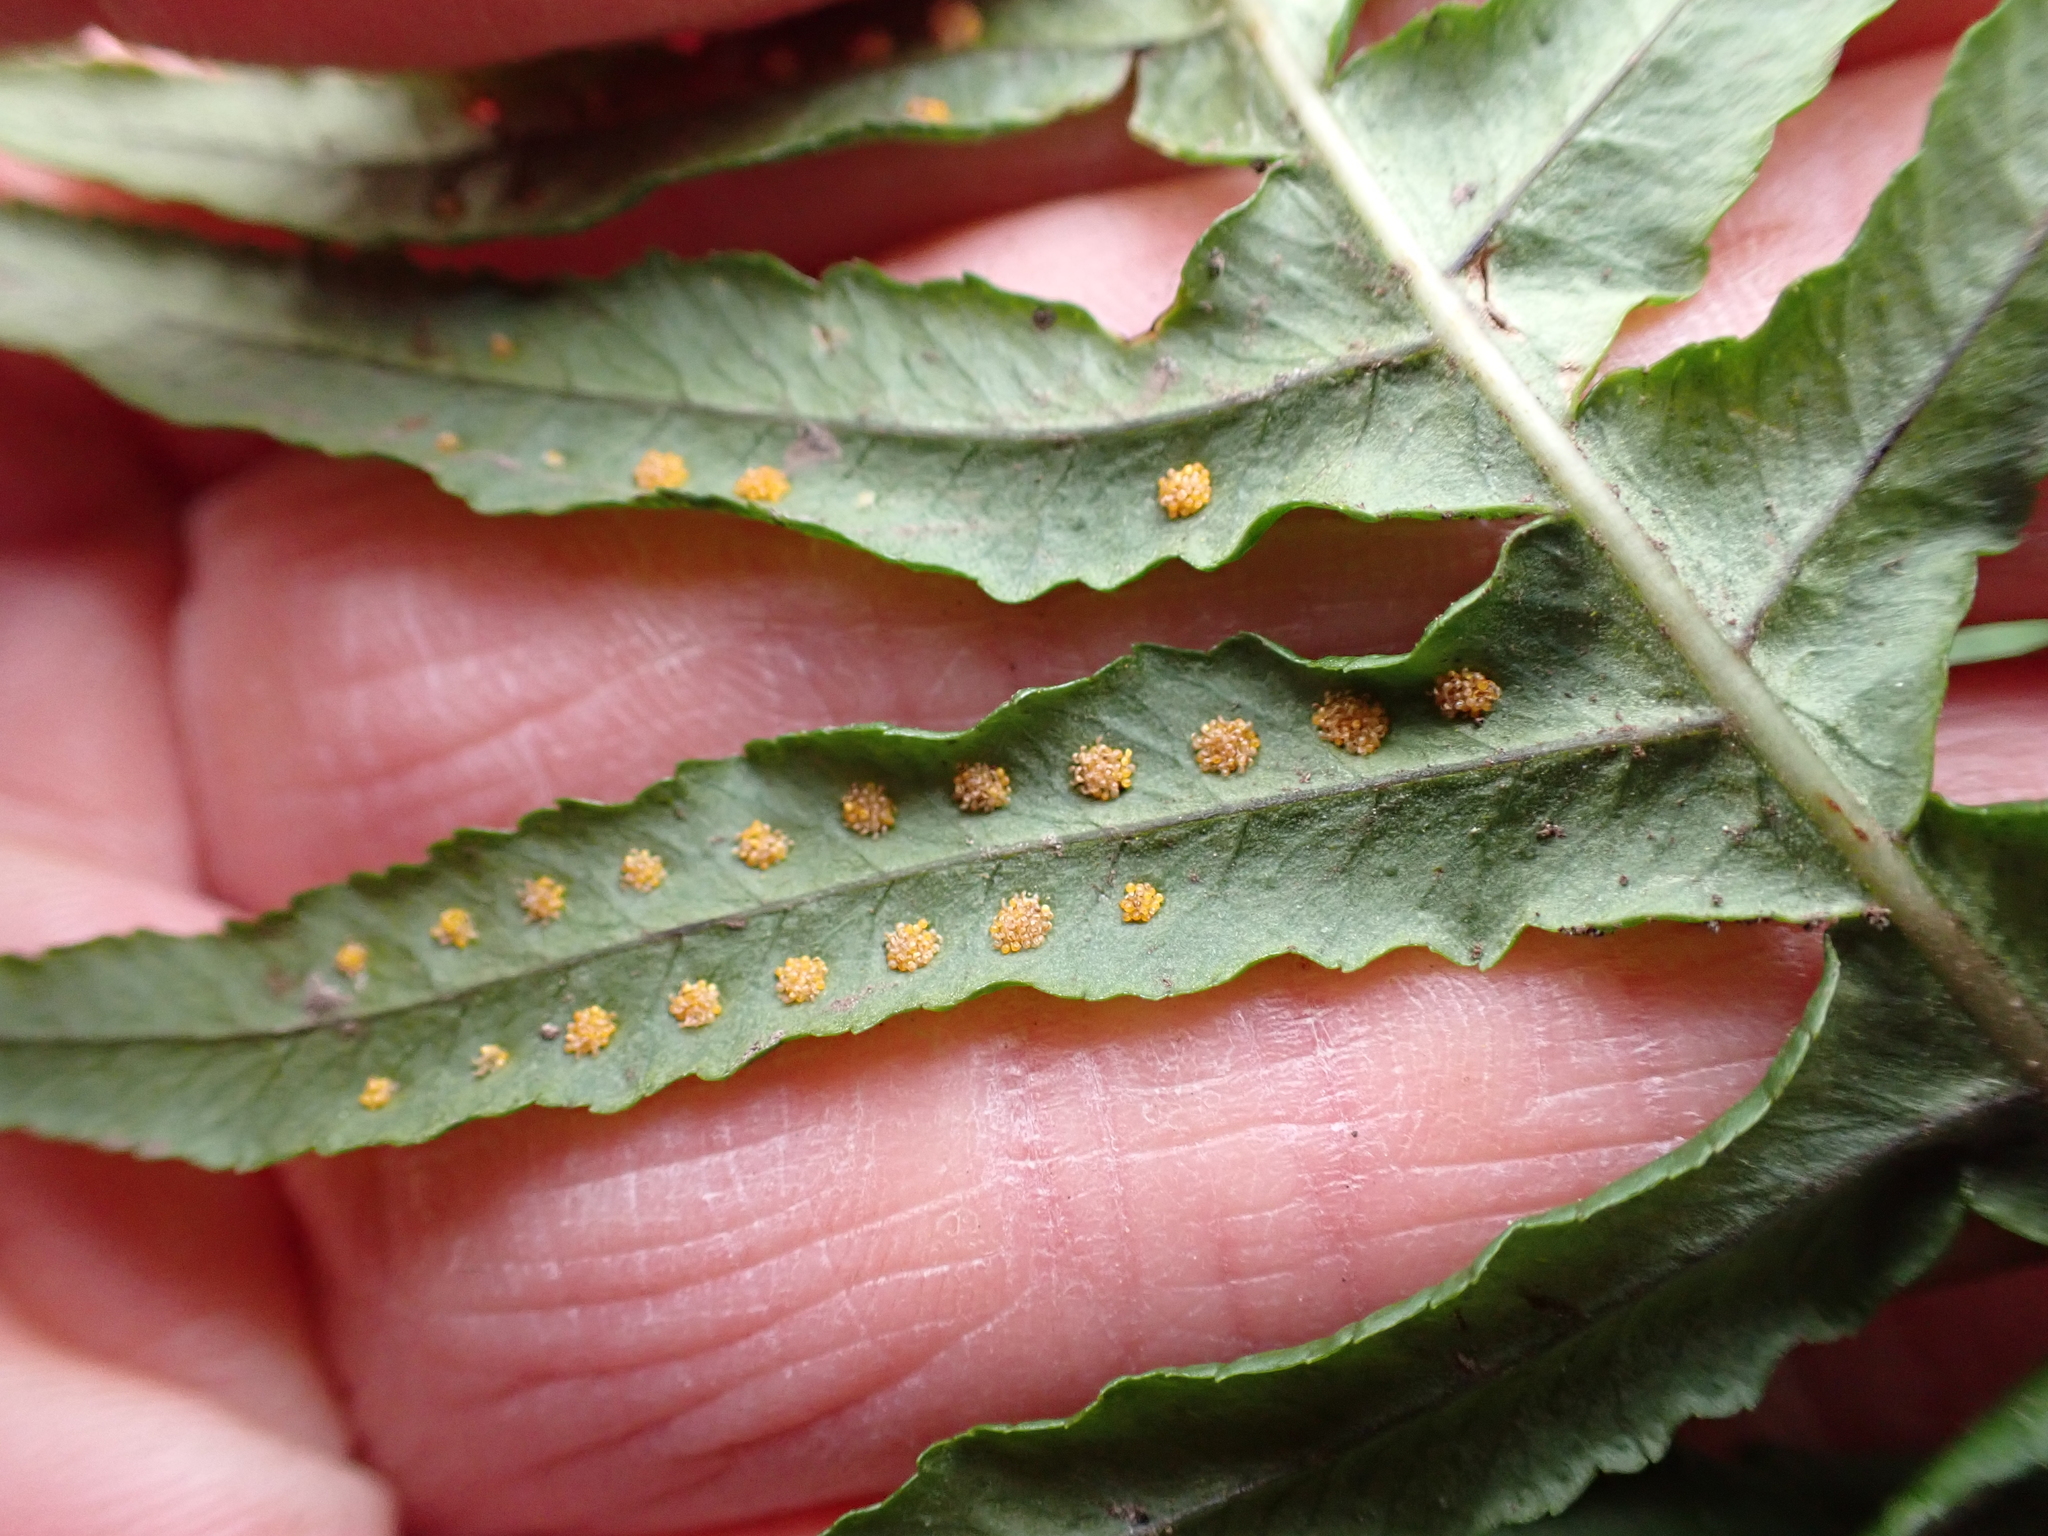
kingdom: Plantae
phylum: Tracheophyta
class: Polypodiopsida
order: Polypodiales
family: Polypodiaceae
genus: Polypodium
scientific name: Polypodium glycyrrhiza
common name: Licorice fern
